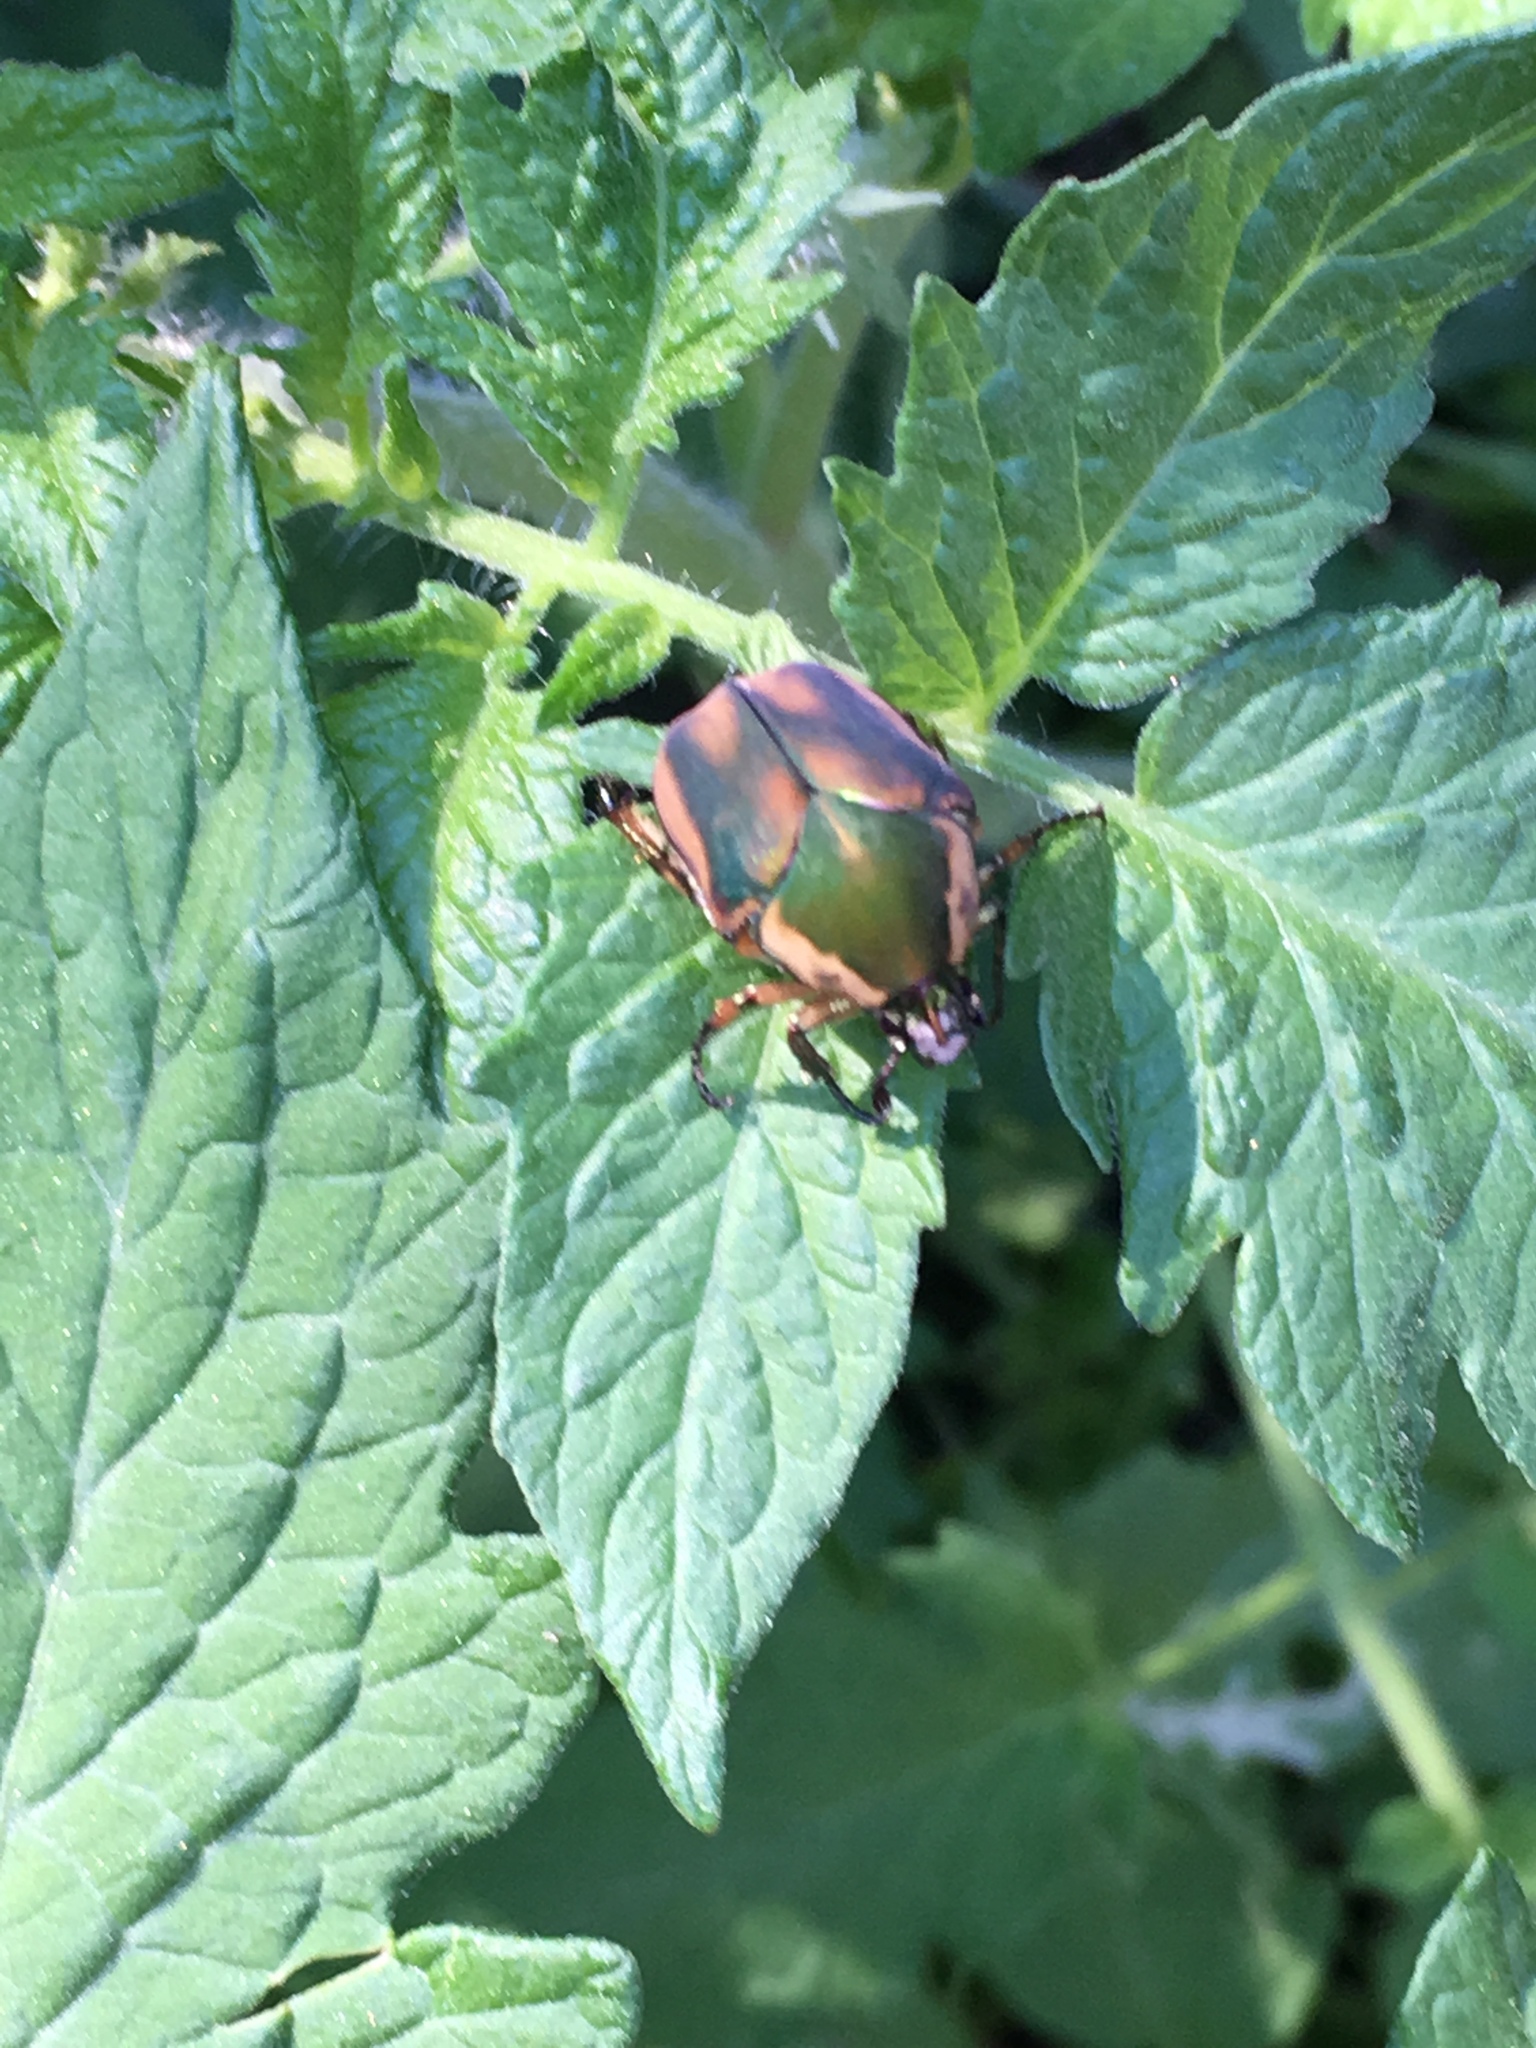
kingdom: Animalia
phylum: Arthropoda
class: Insecta
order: Coleoptera
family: Scarabaeidae
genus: Cotinis
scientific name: Cotinis nitida
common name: Common green june beetle
